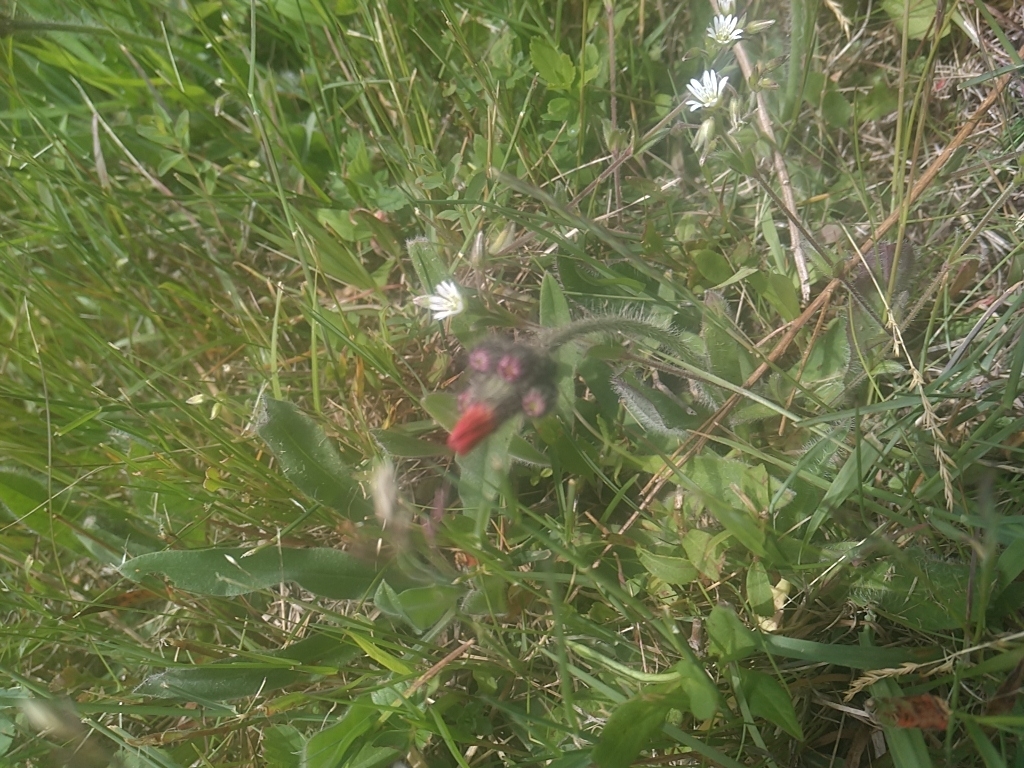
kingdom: Plantae
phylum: Tracheophyta
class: Magnoliopsida
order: Asterales
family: Asteraceae
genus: Pilosella
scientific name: Pilosella aurantiaca
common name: Fox-and-cubs
